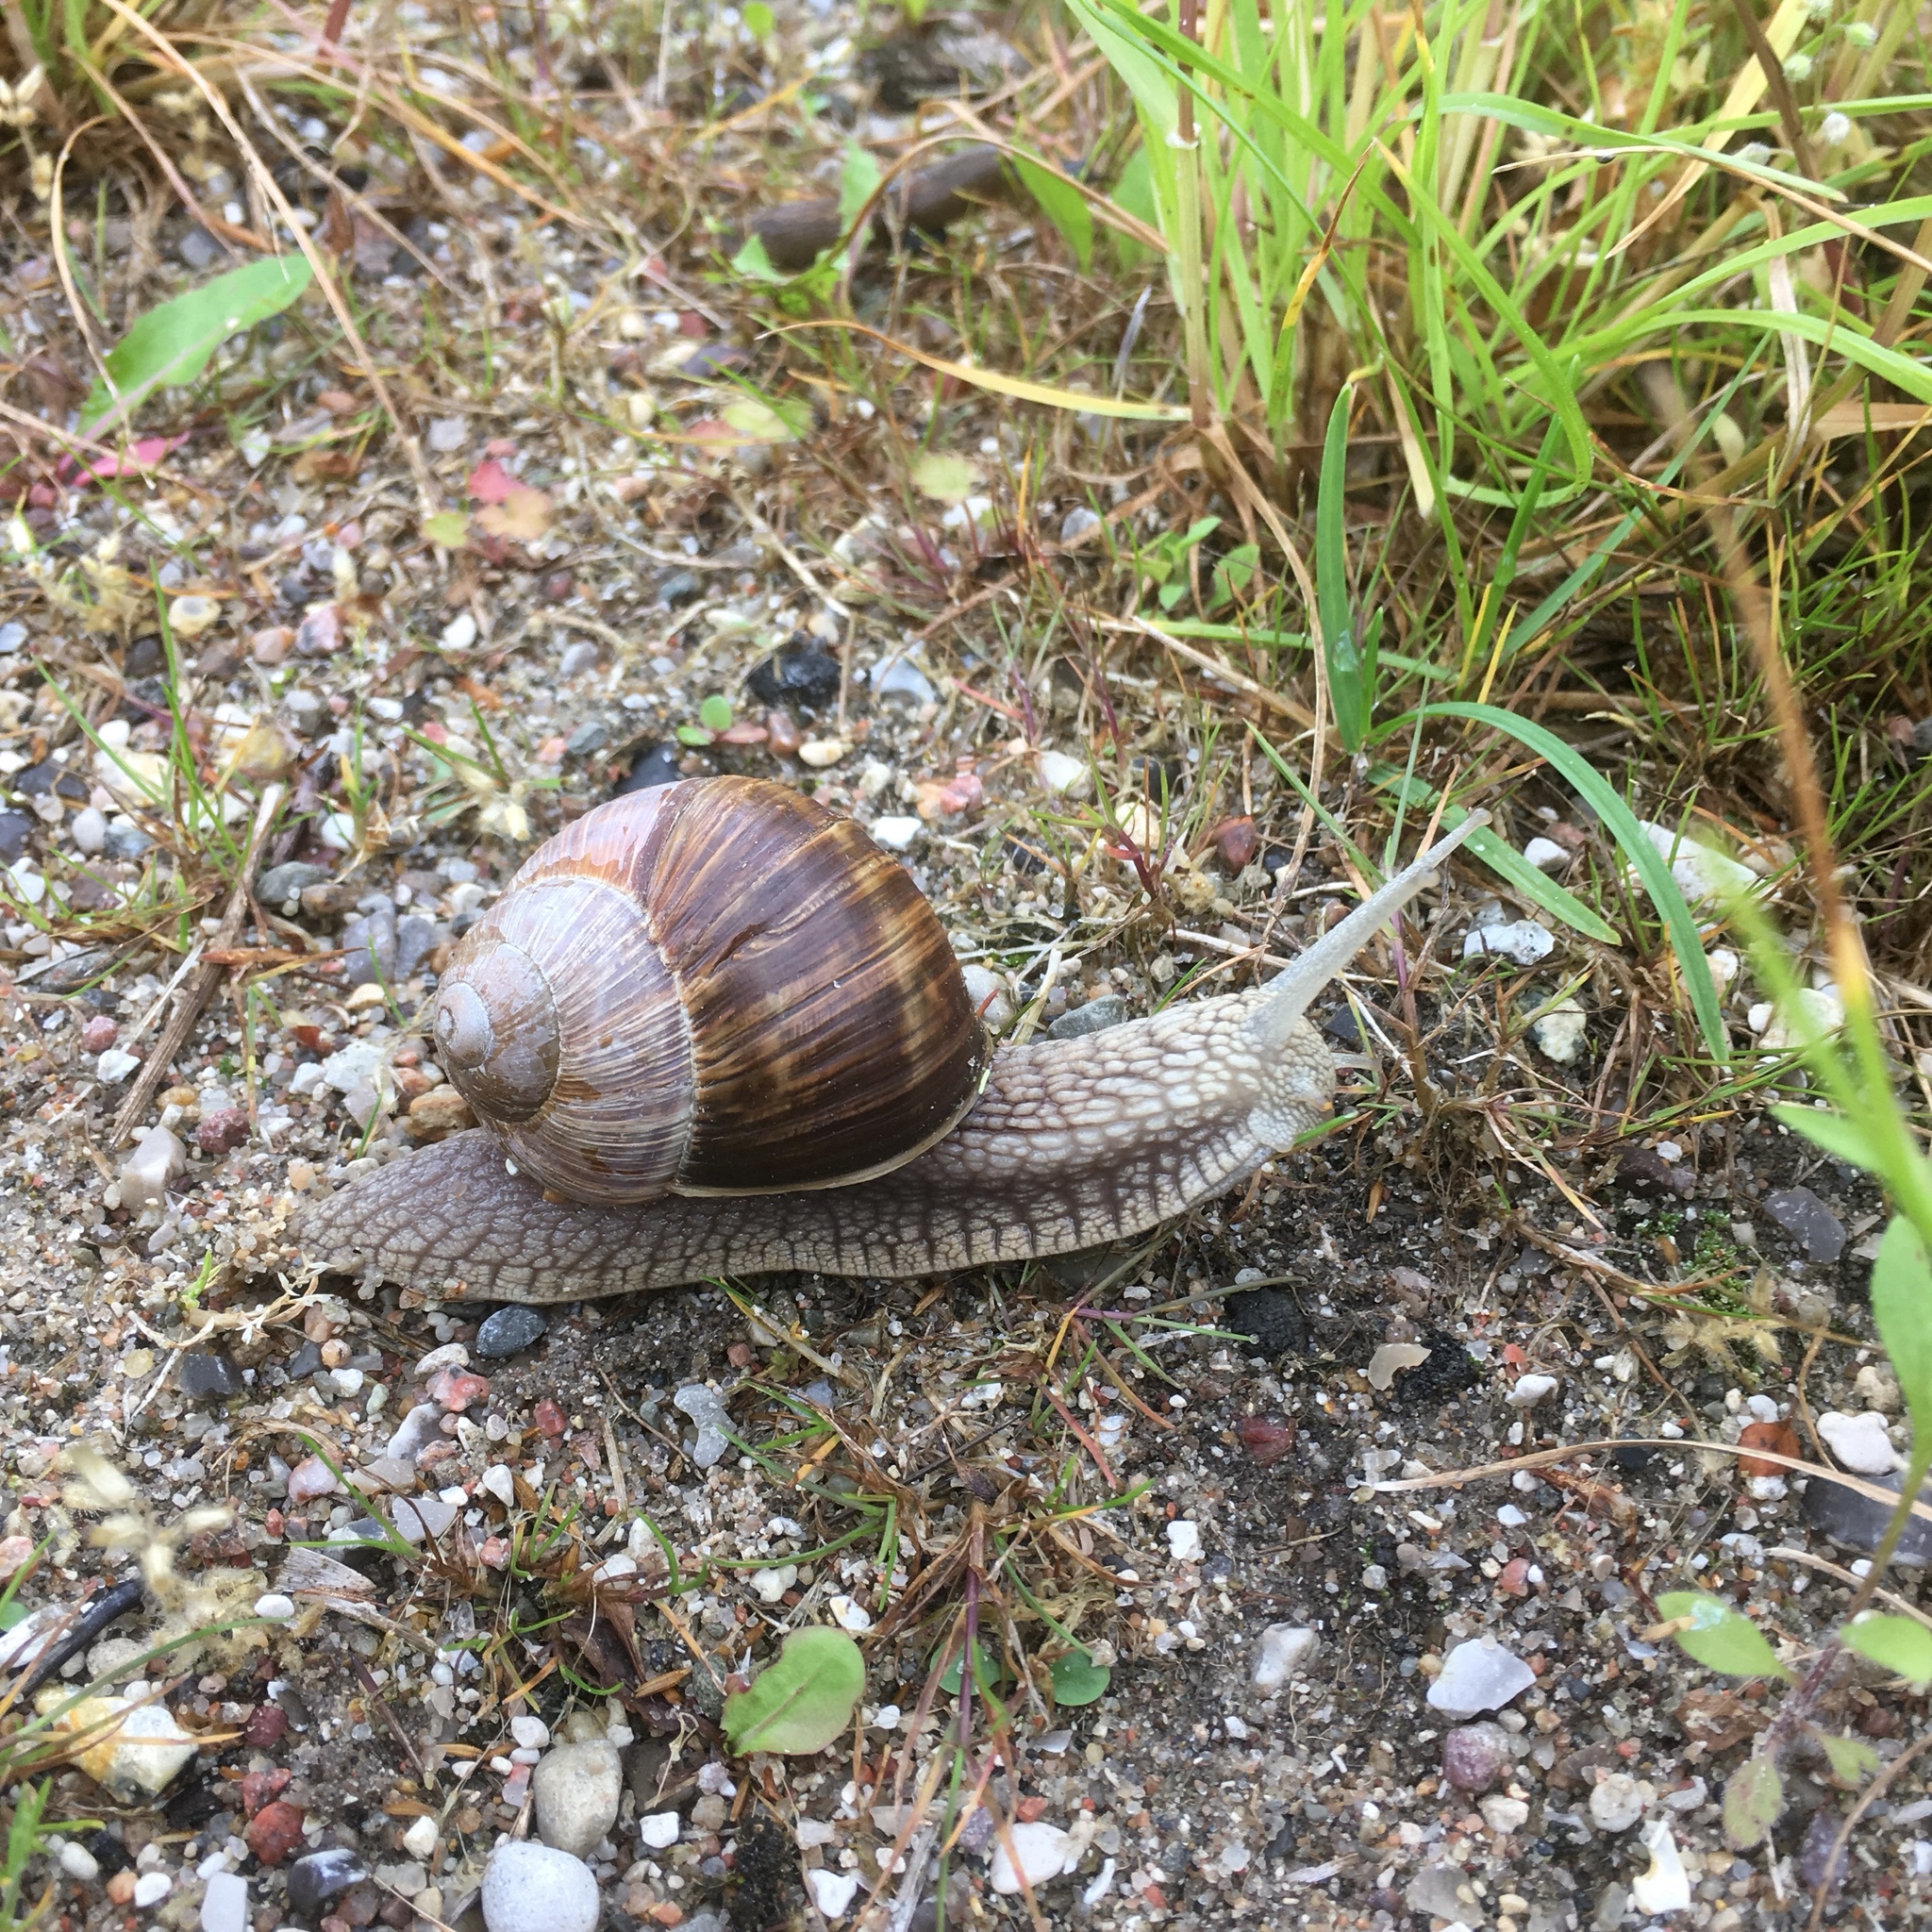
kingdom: Animalia
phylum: Mollusca
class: Gastropoda
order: Stylommatophora
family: Helicidae
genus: Helix
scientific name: Helix pomatia
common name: Roman snail
